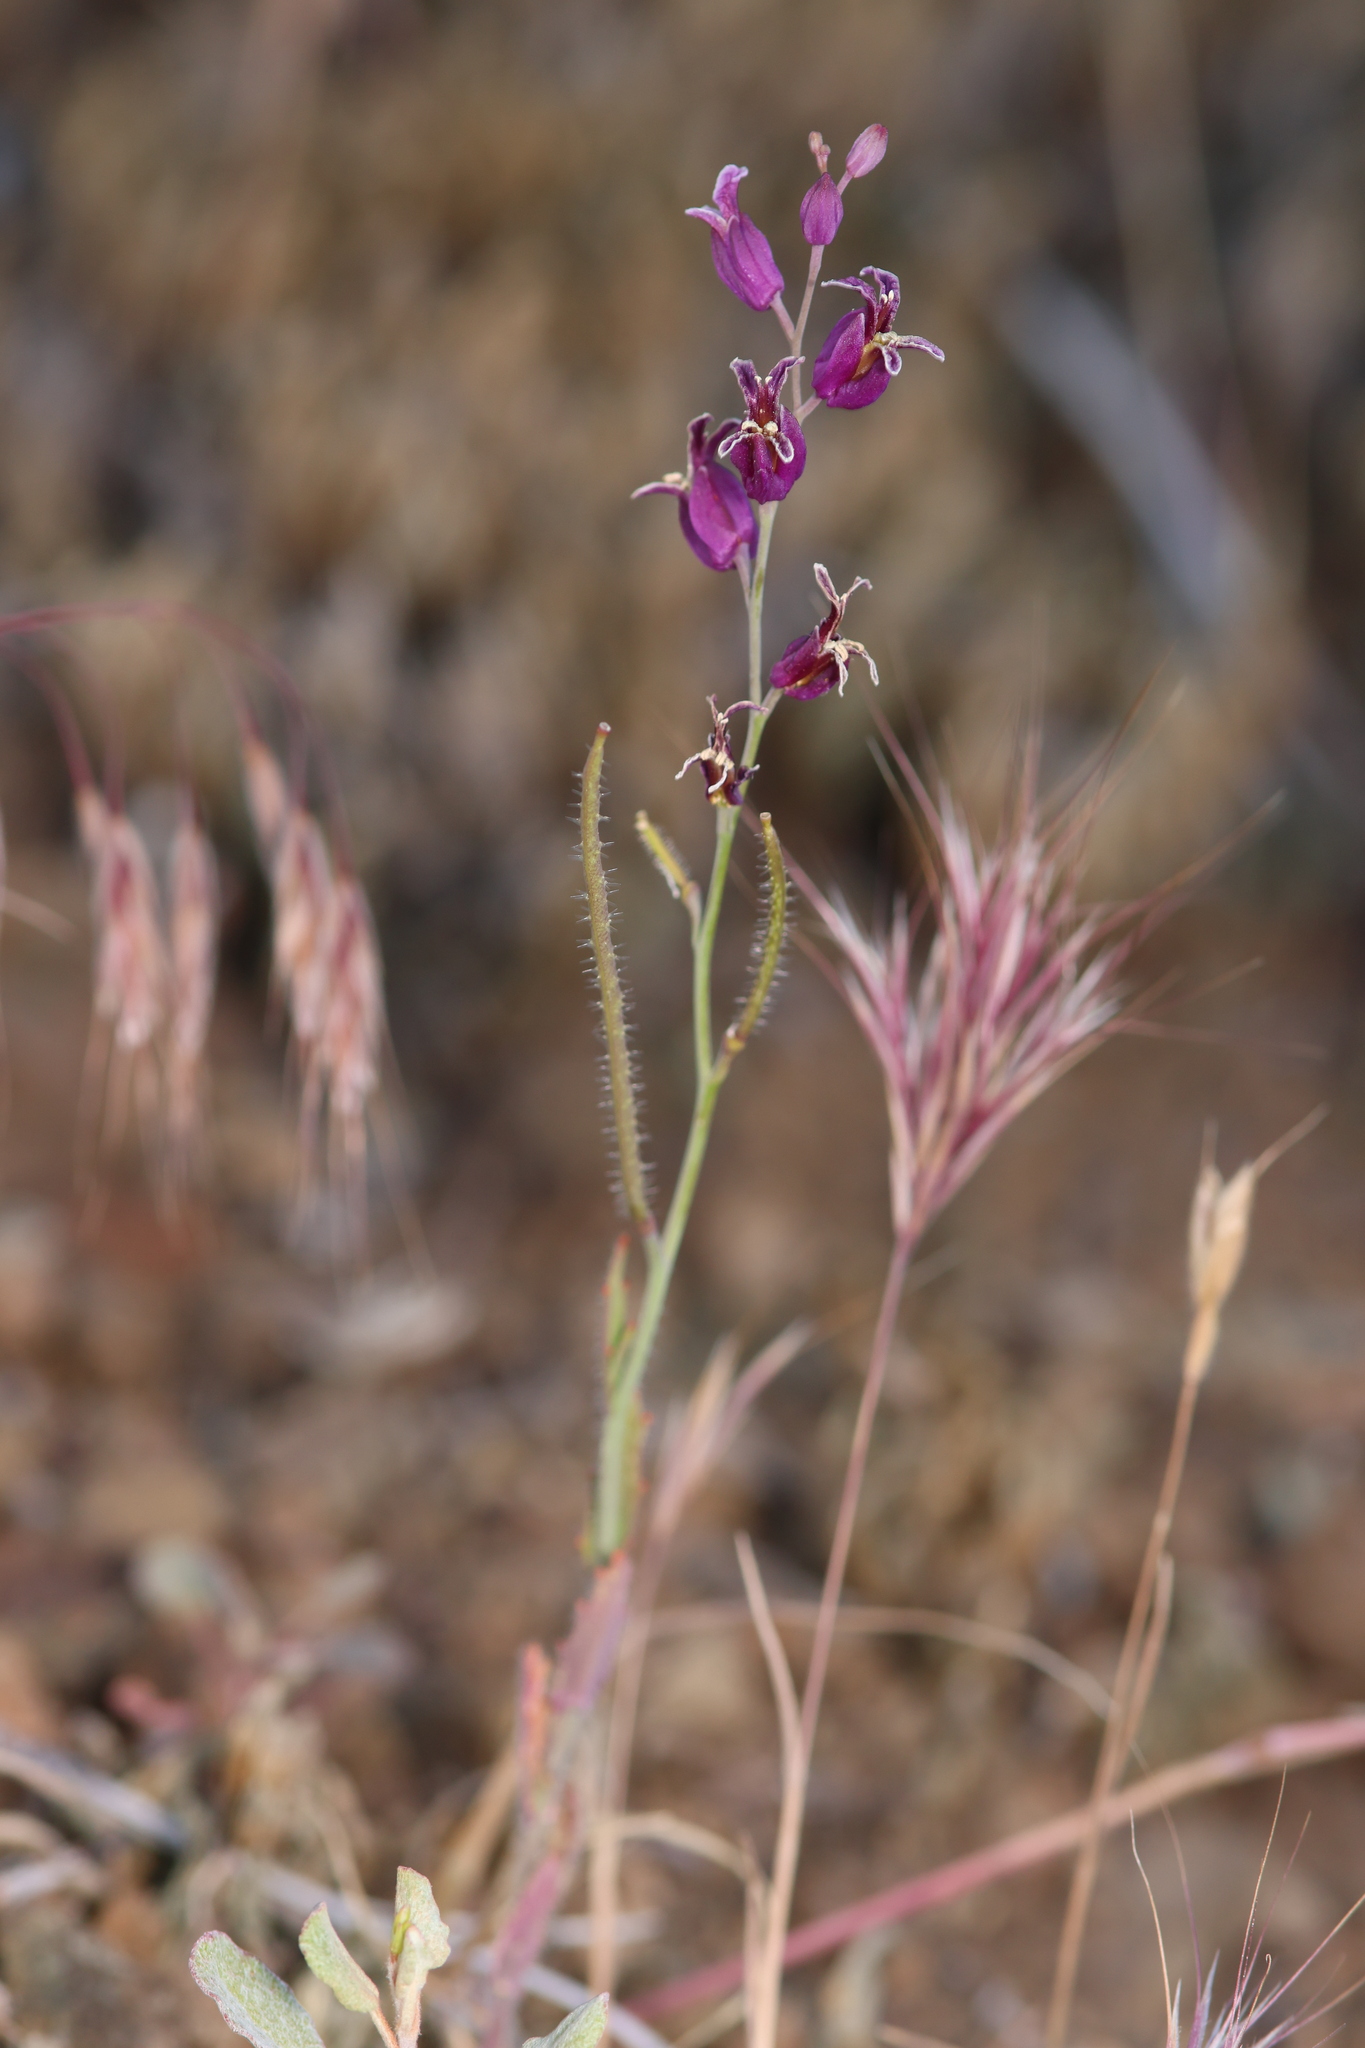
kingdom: Plantae
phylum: Tracheophyta
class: Magnoliopsida
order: Brassicales
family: Brassicaceae
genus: Streptanthus
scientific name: Streptanthus glandulosus
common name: Jewel-flower
